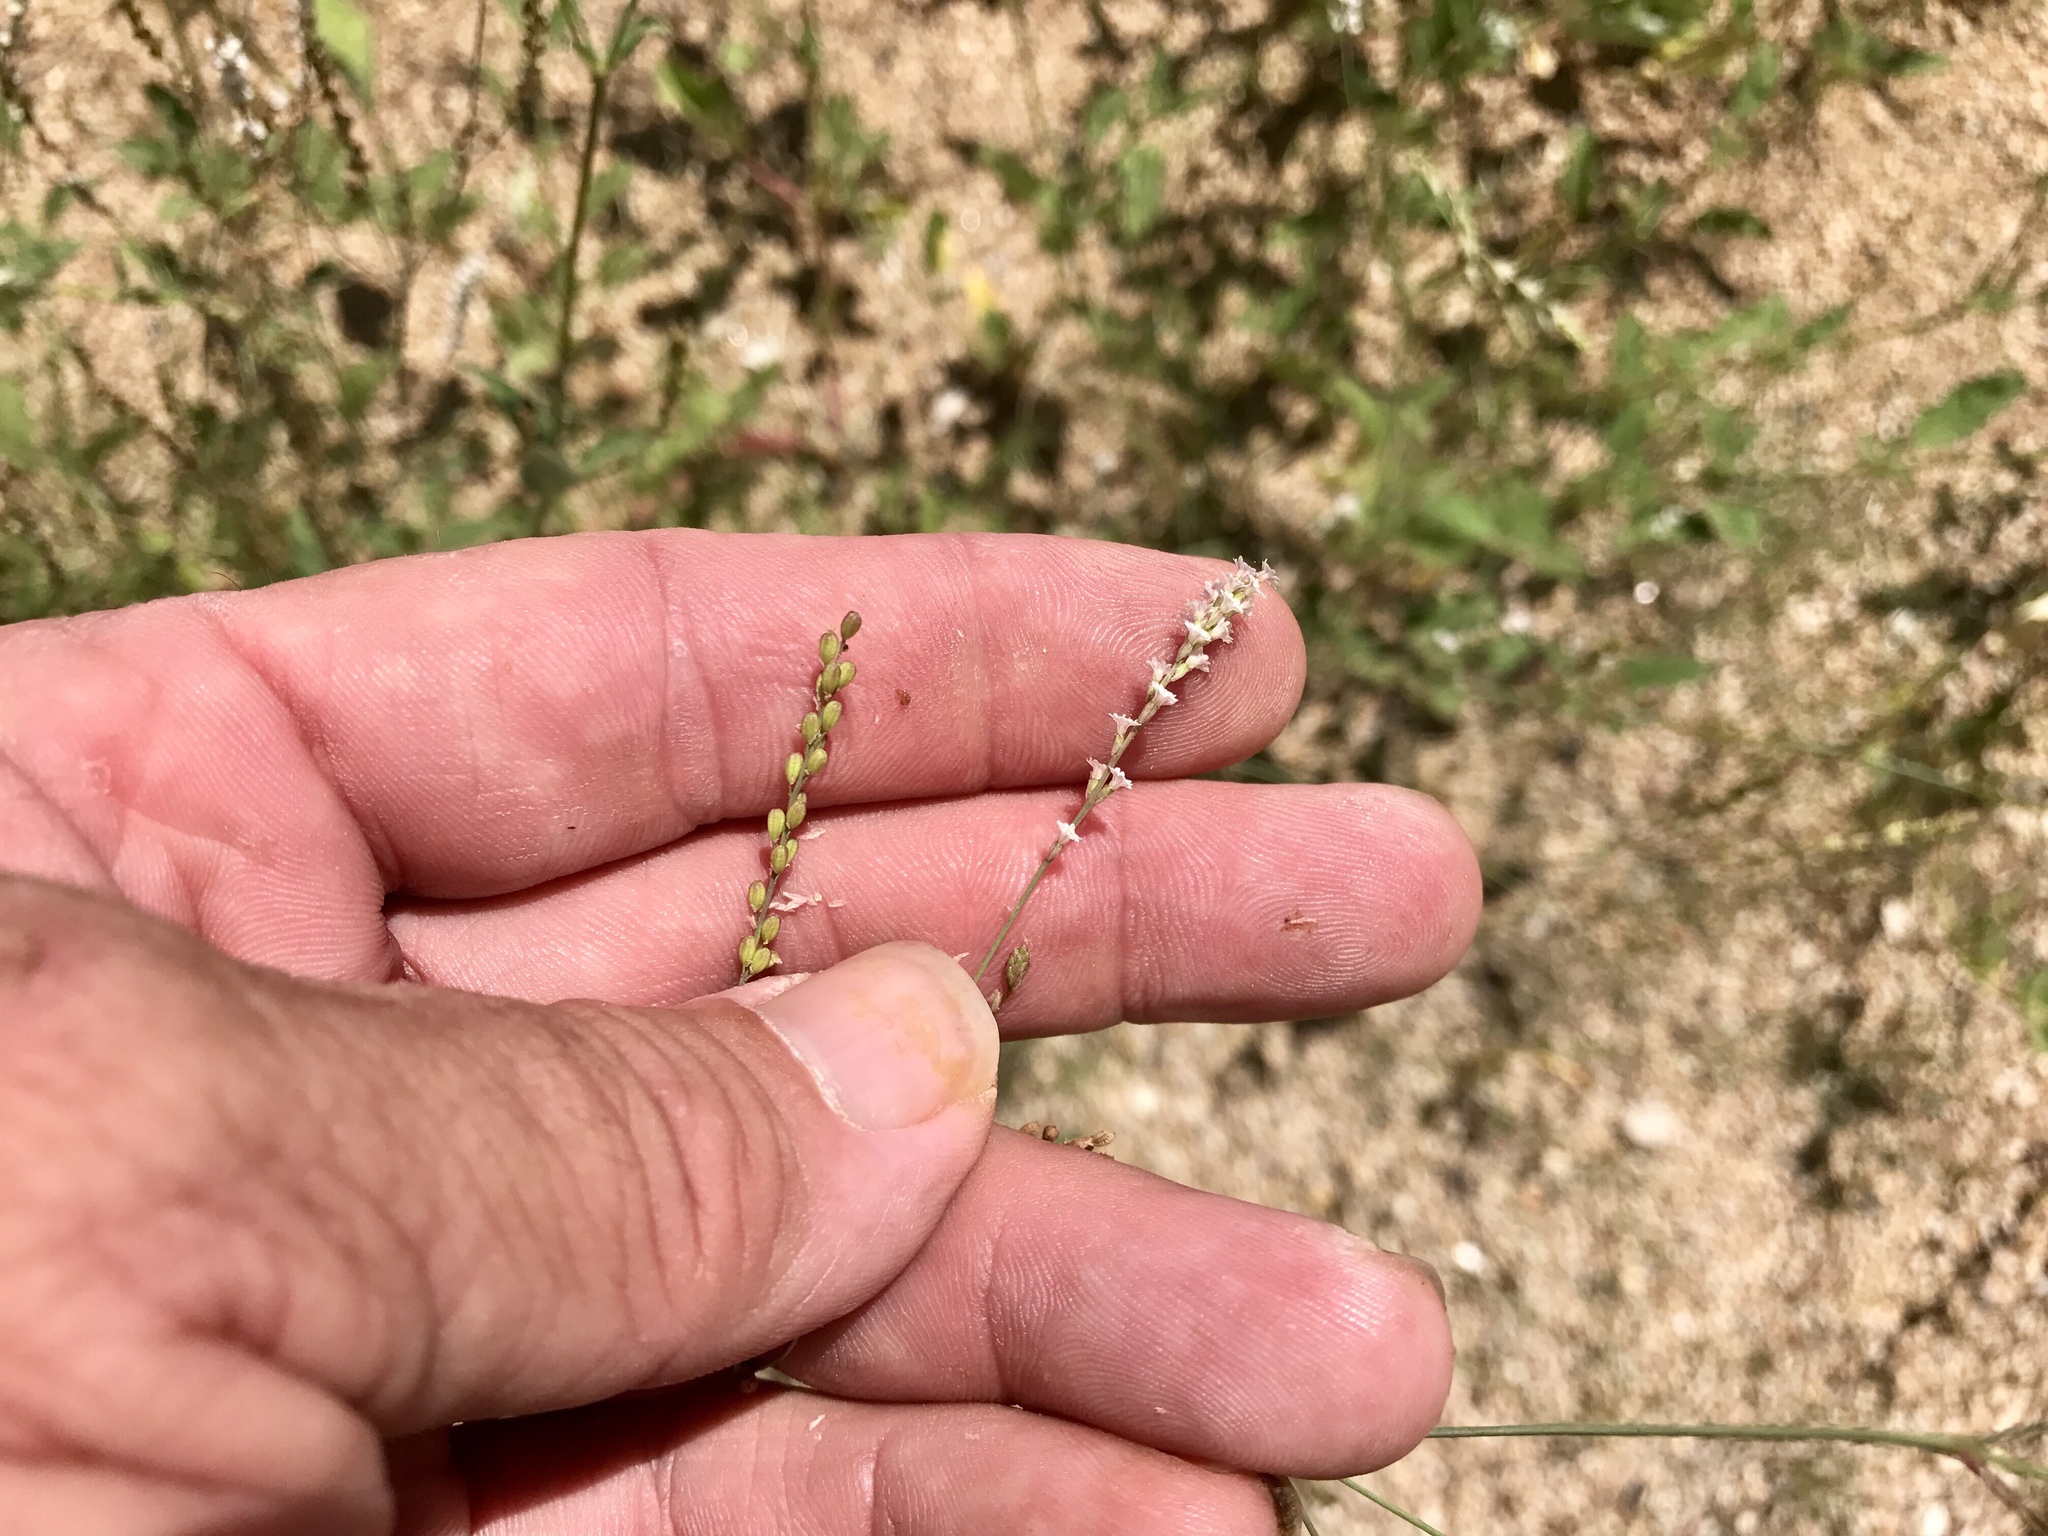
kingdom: Plantae
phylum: Tracheophyta
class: Magnoliopsida
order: Caryophyllales
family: Nyctaginaceae
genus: Boerhavia
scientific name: Boerhavia coulteri
